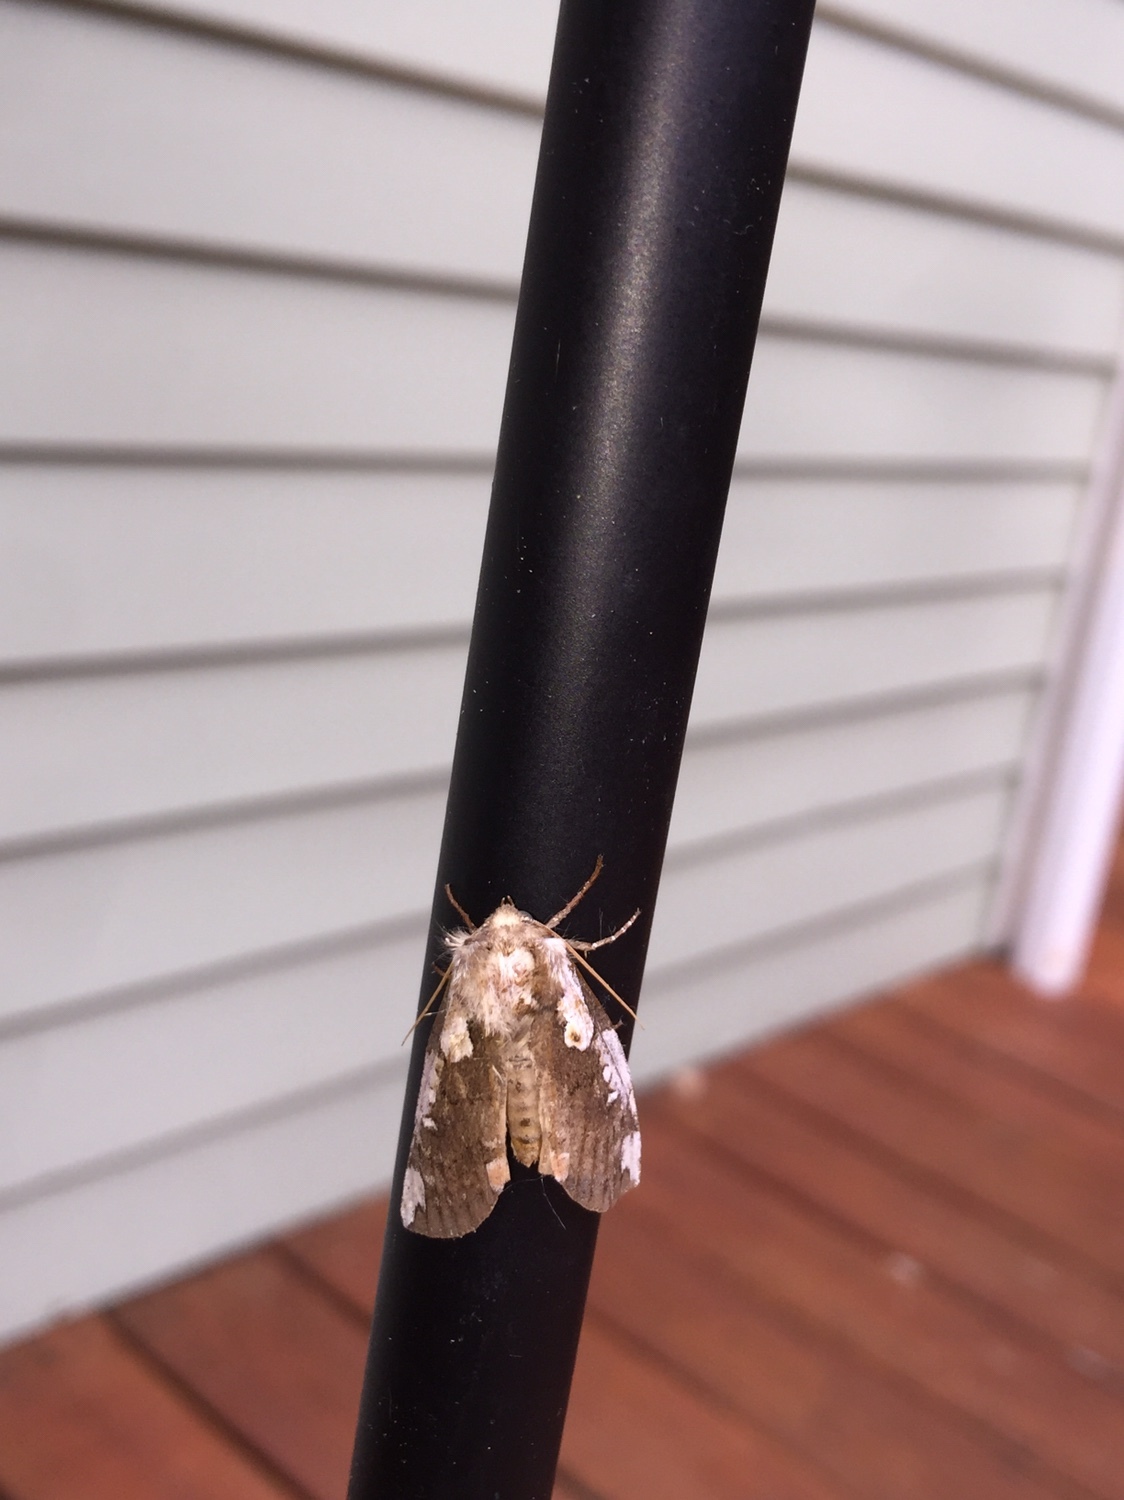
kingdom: Animalia
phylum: Arthropoda
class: Insecta
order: Lepidoptera
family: Drepanidae
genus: Euthyatira
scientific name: Euthyatira pudens
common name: Dogwood thyatirid moth
